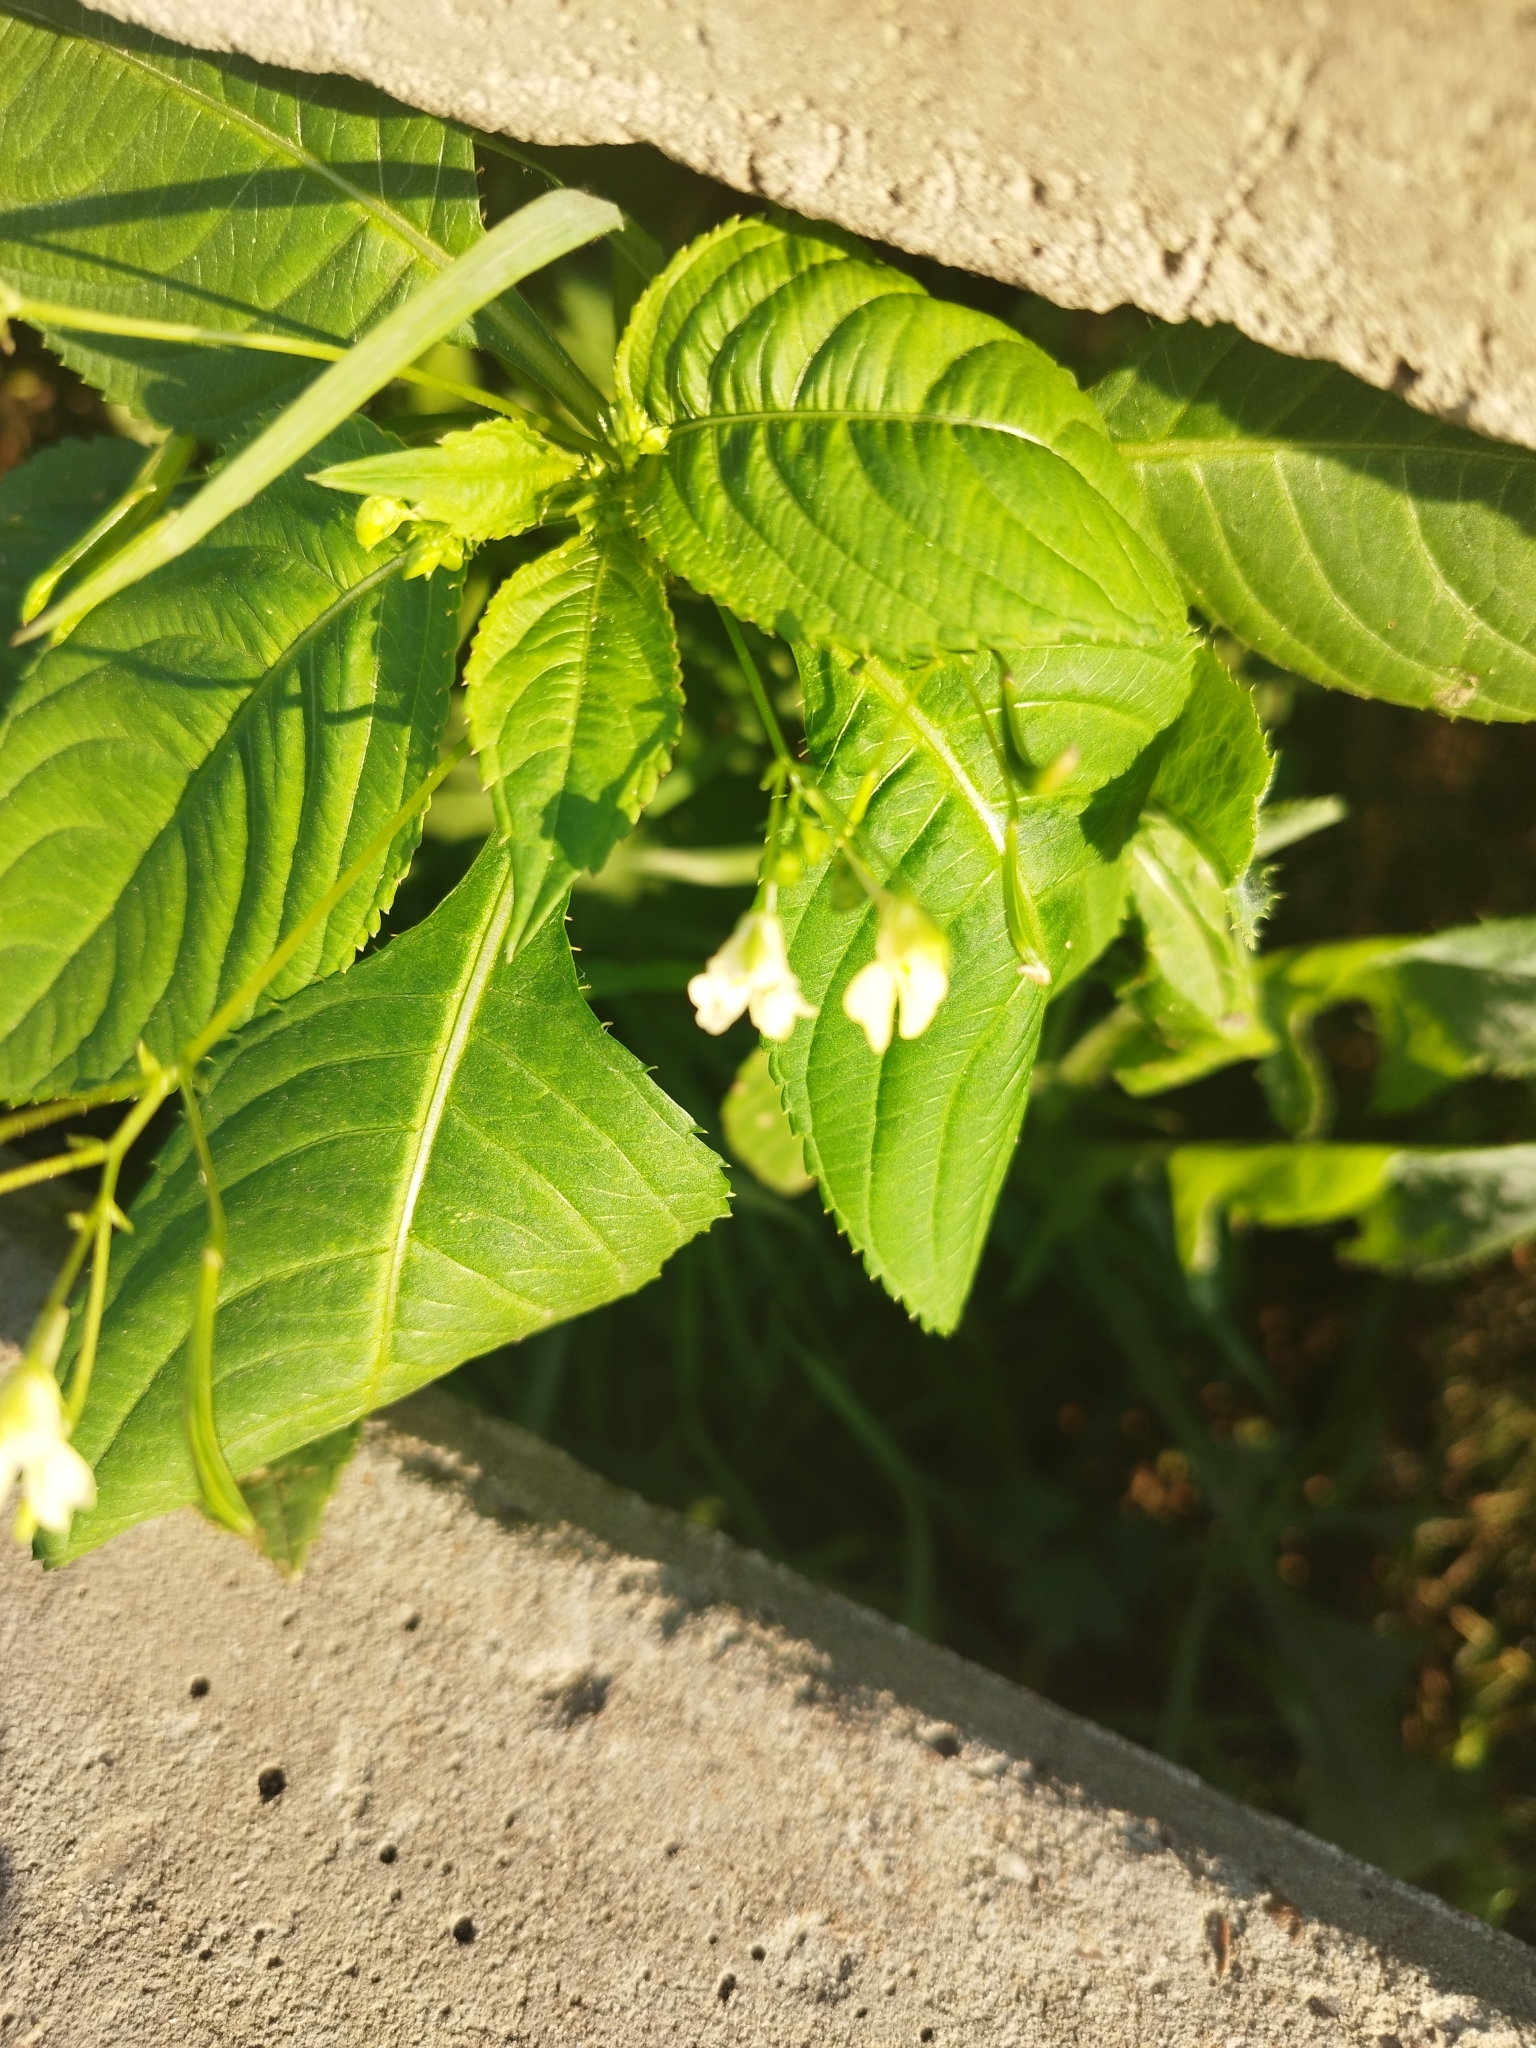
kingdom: Plantae
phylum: Tracheophyta
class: Magnoliopsida
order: Ericales
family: Balsaminaceae
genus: Impatiens
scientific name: Impatiens parviflora
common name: Small balsam
